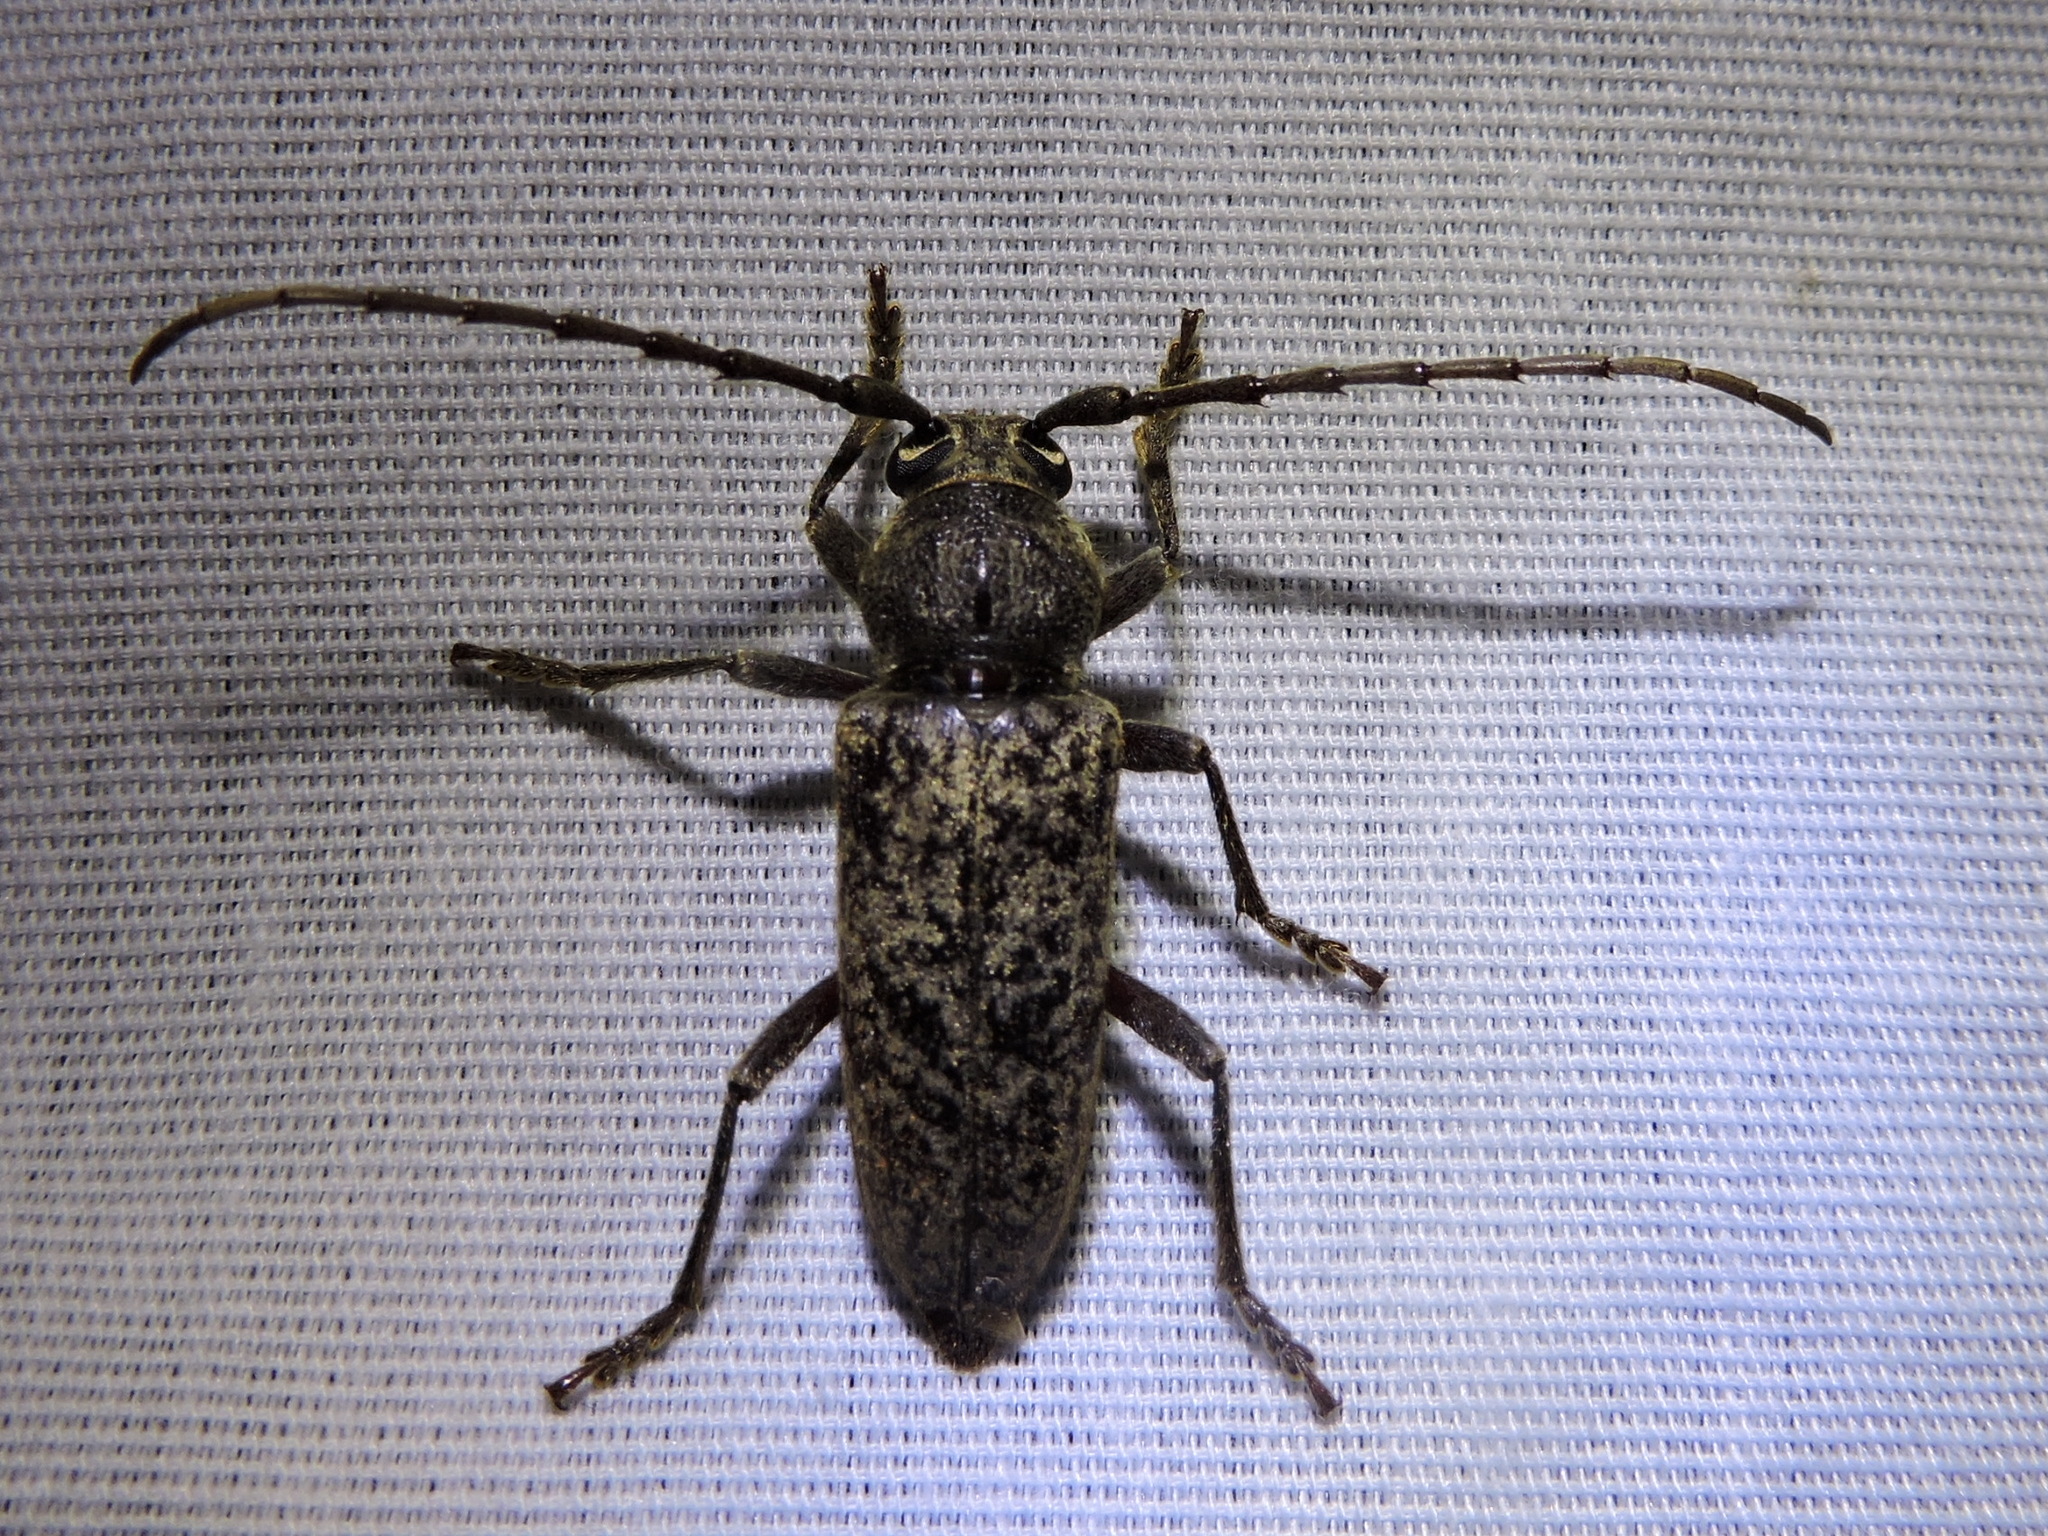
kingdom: Animalia
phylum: Arthropoda
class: Insecta
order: Coleoptera
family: Cerambycidae
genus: Enaphalodes
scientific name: Enaphalodes atomarius
